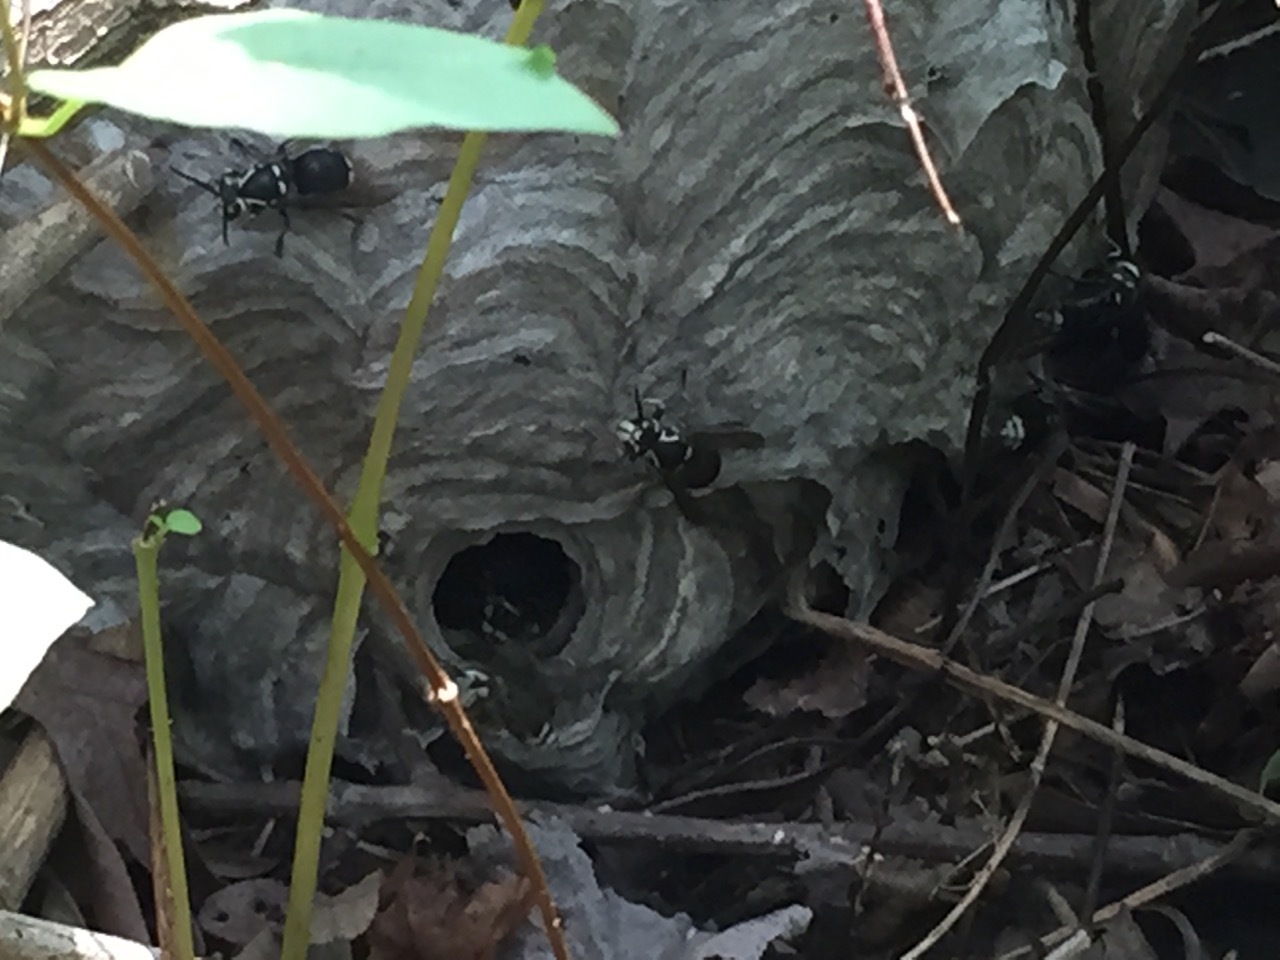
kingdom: Animalia
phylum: Arthropoda
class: Insecta
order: Hymenoptera
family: Vespidae
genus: Dolichovespula
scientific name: Dolichovespula maculata
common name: Bald-faced hornet
